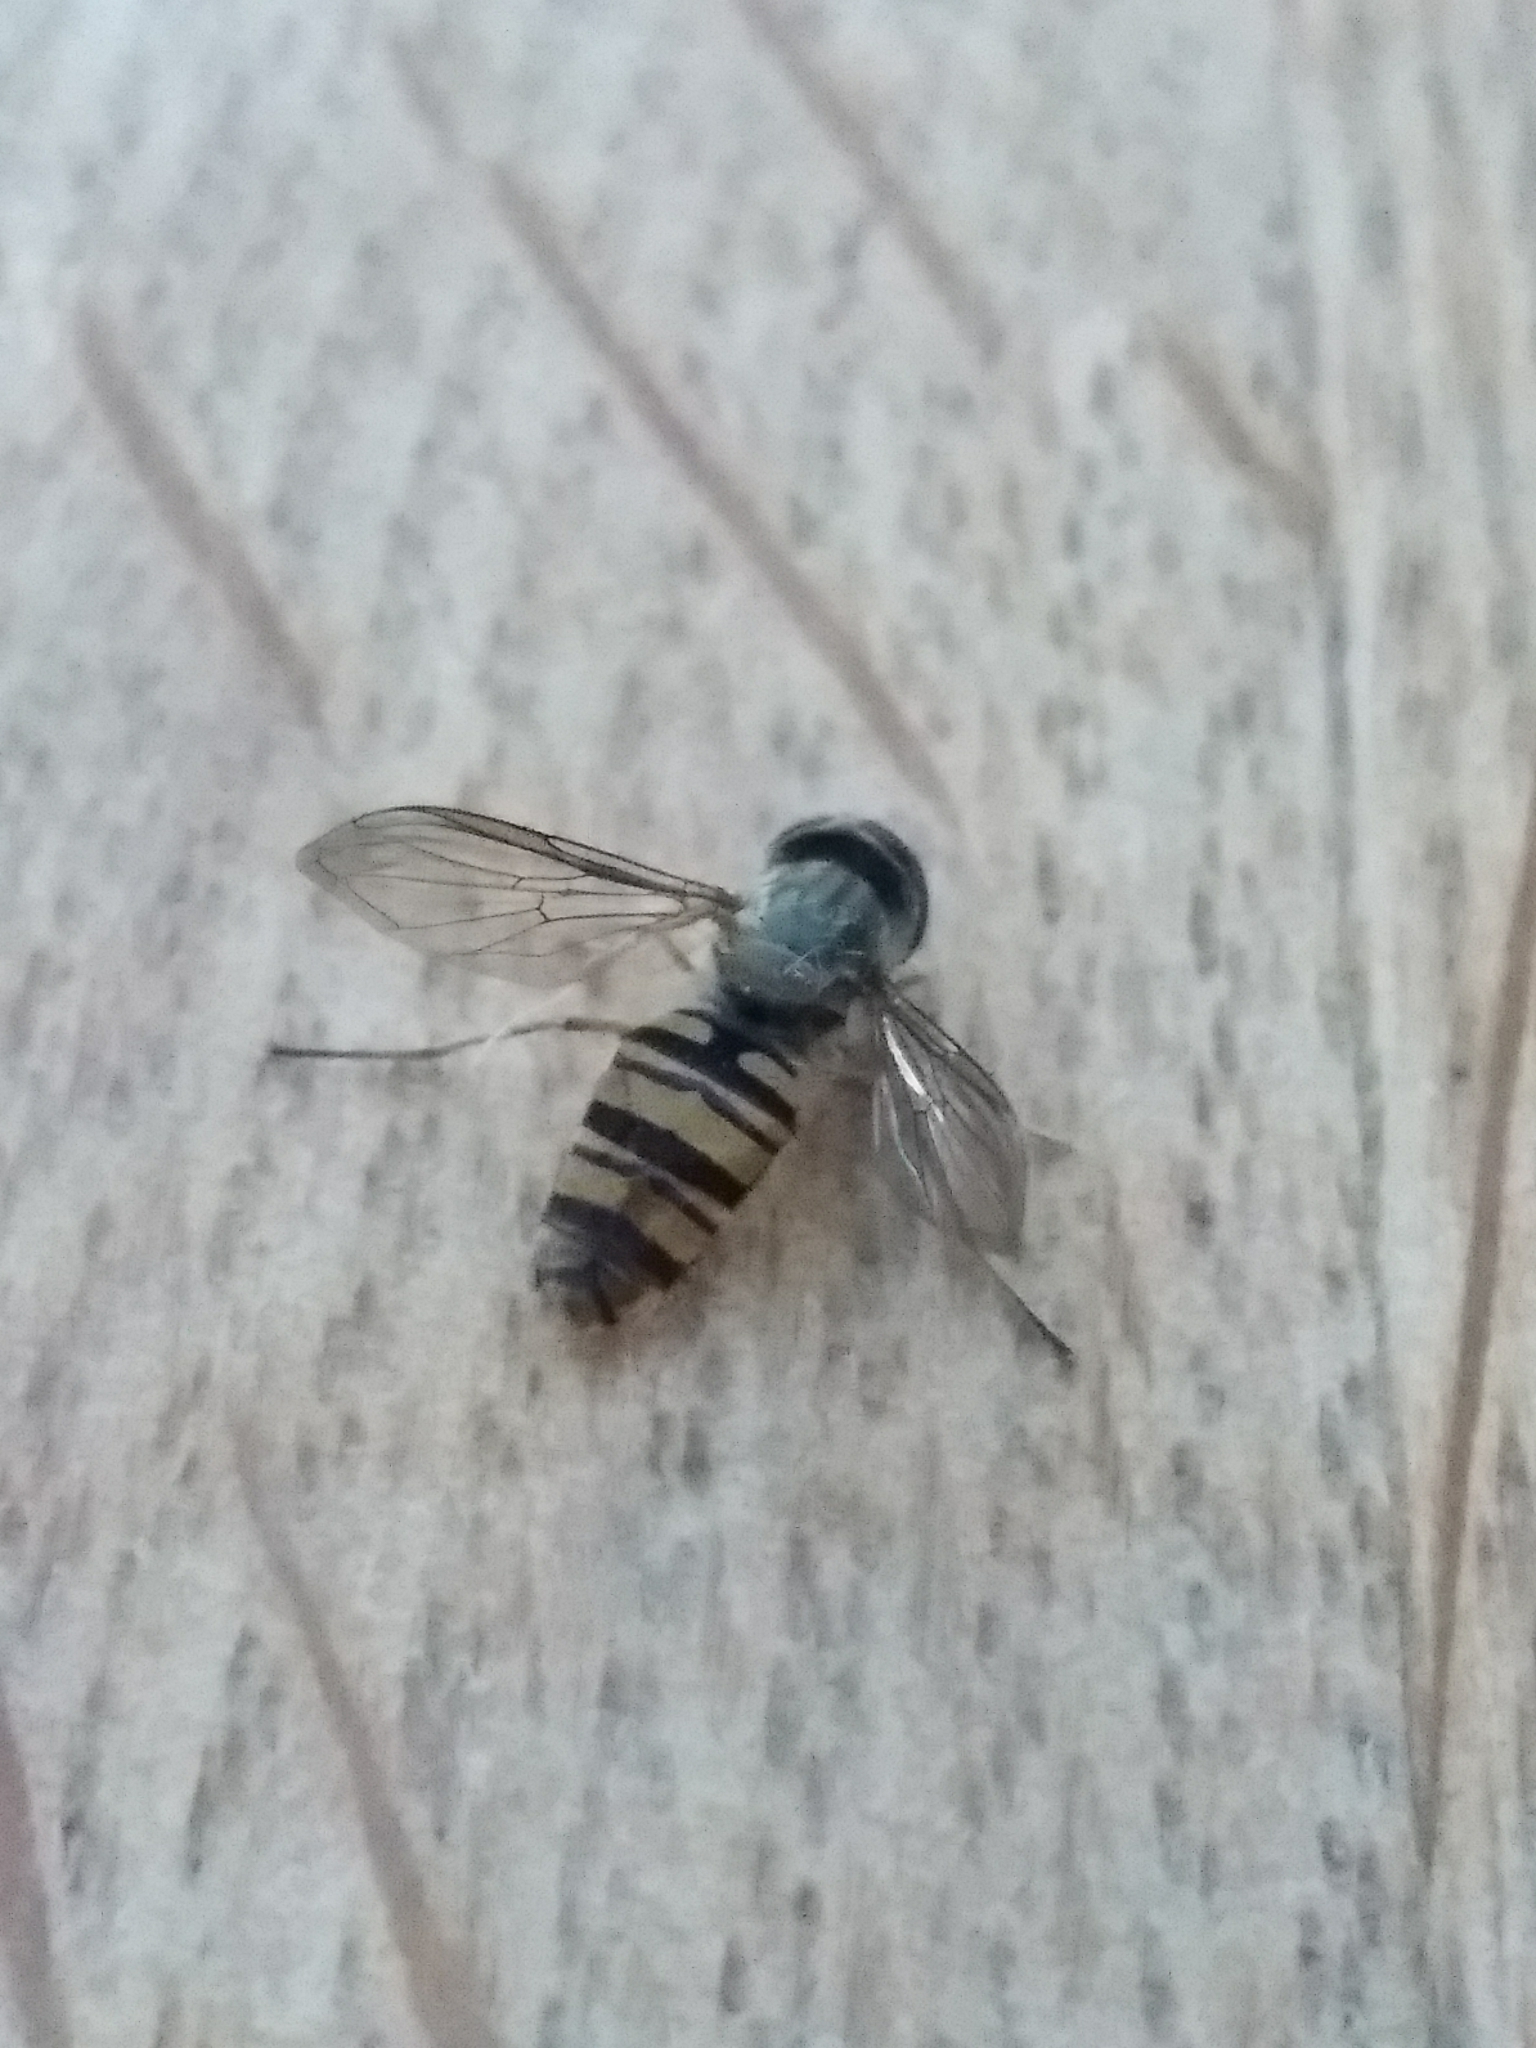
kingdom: Animalia
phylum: Arthropoda
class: Insecta
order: Diptera
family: Syrphidae
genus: Episyrphus
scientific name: Episyrphus balteatus
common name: Marmalade hoverfly
